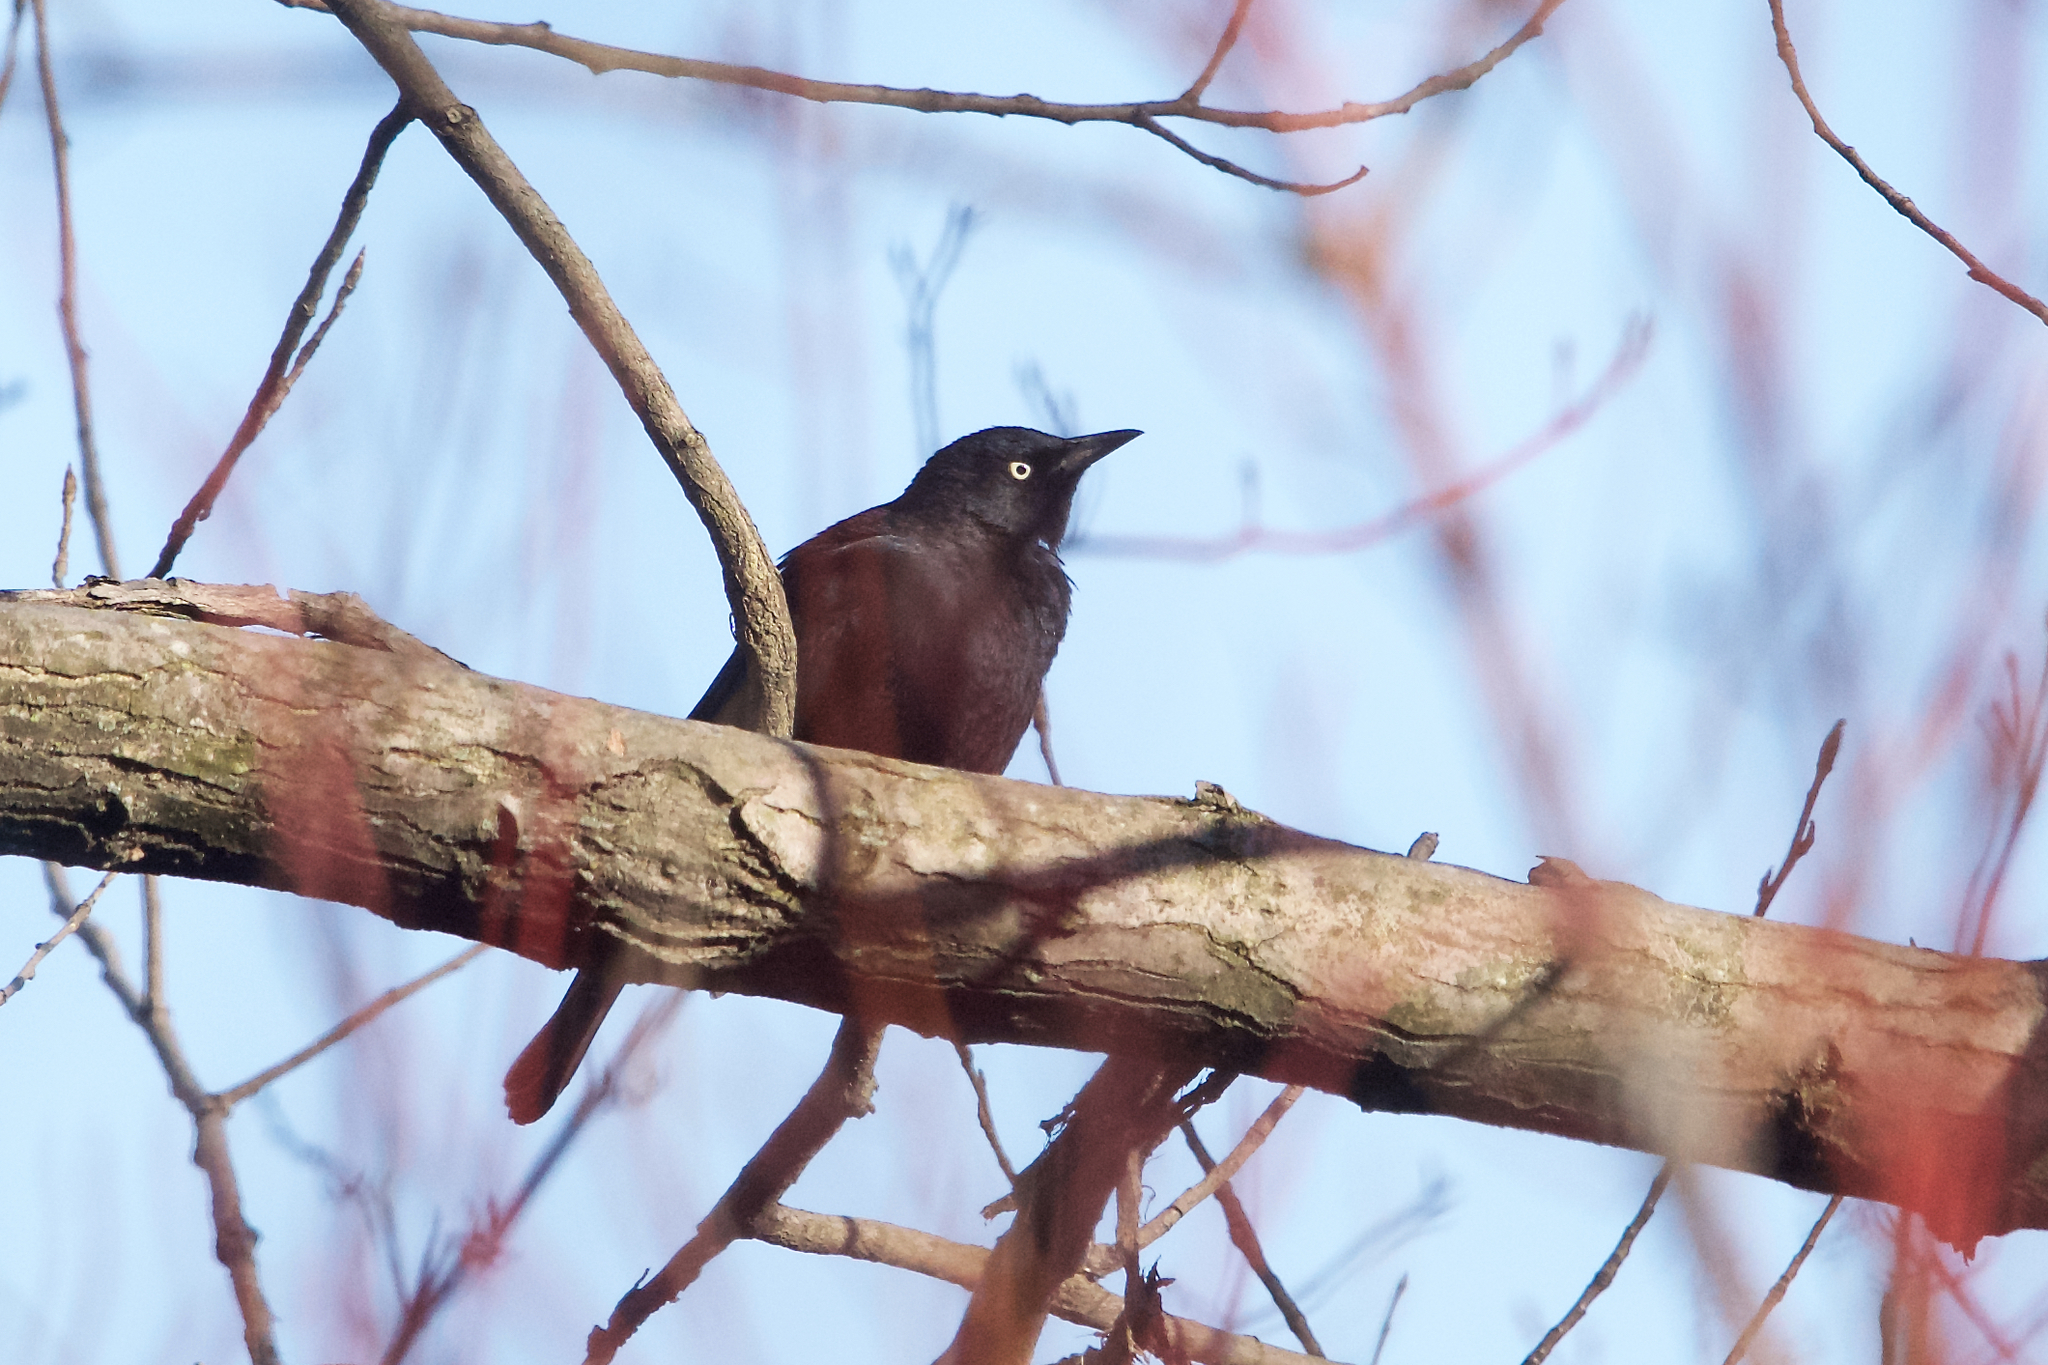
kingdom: Animalia
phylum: Chordata
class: Aves
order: Passeriformes
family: Icteridae
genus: Euphagus
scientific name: Euphagus carolinus
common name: Rusty blackbird
